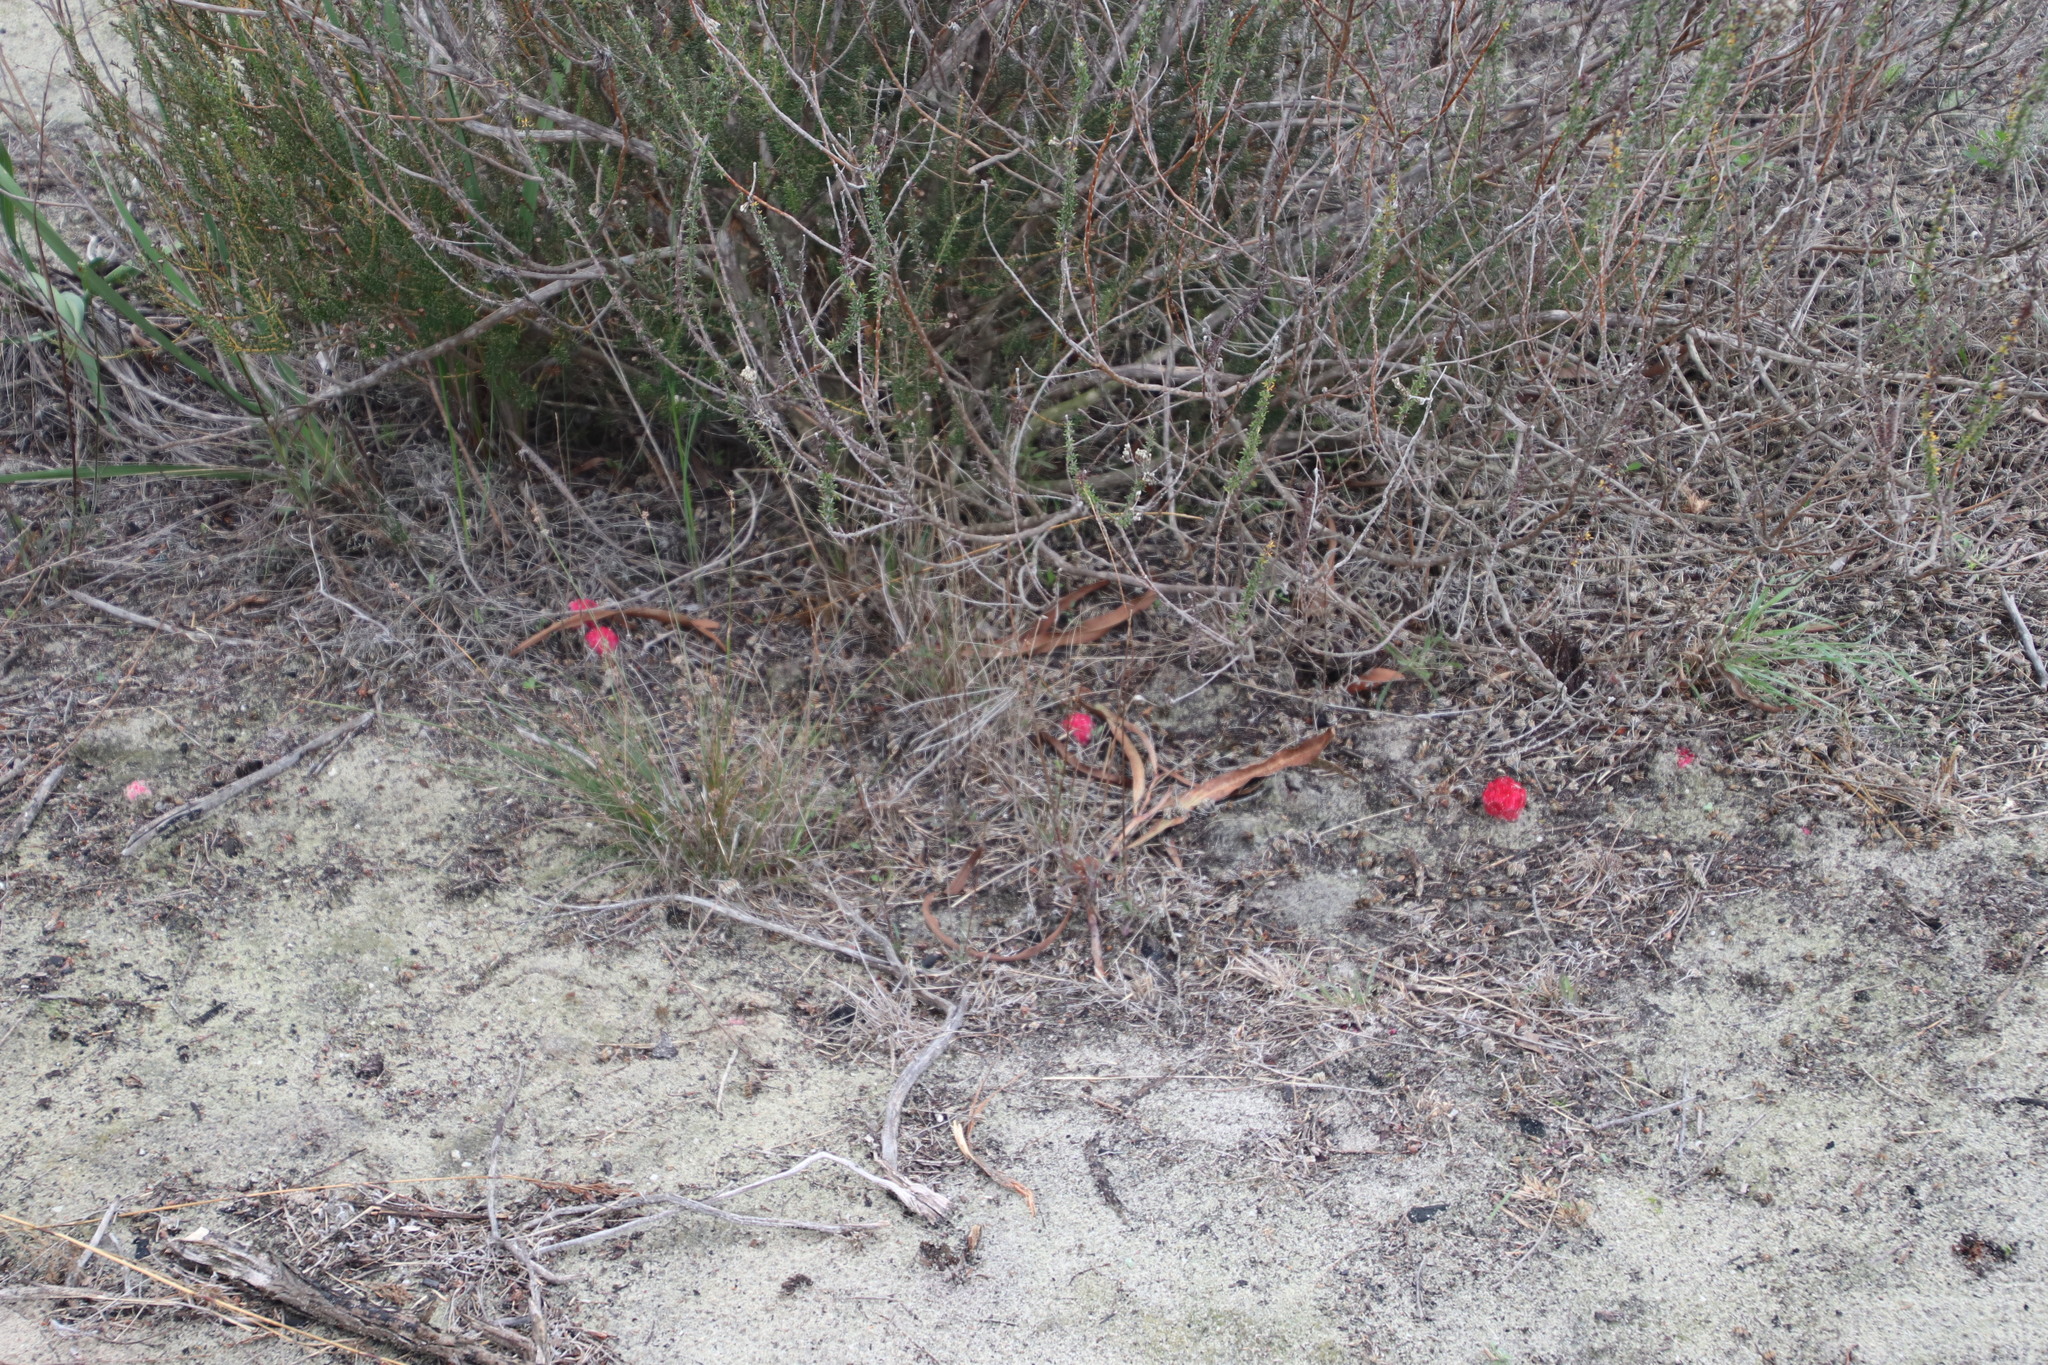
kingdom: Plantae
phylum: Tracheophyta
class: Magnoliopsida
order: Lamiales
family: Orobanchaceae
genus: Hyobanche
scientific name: Hyobanche sanguinea
